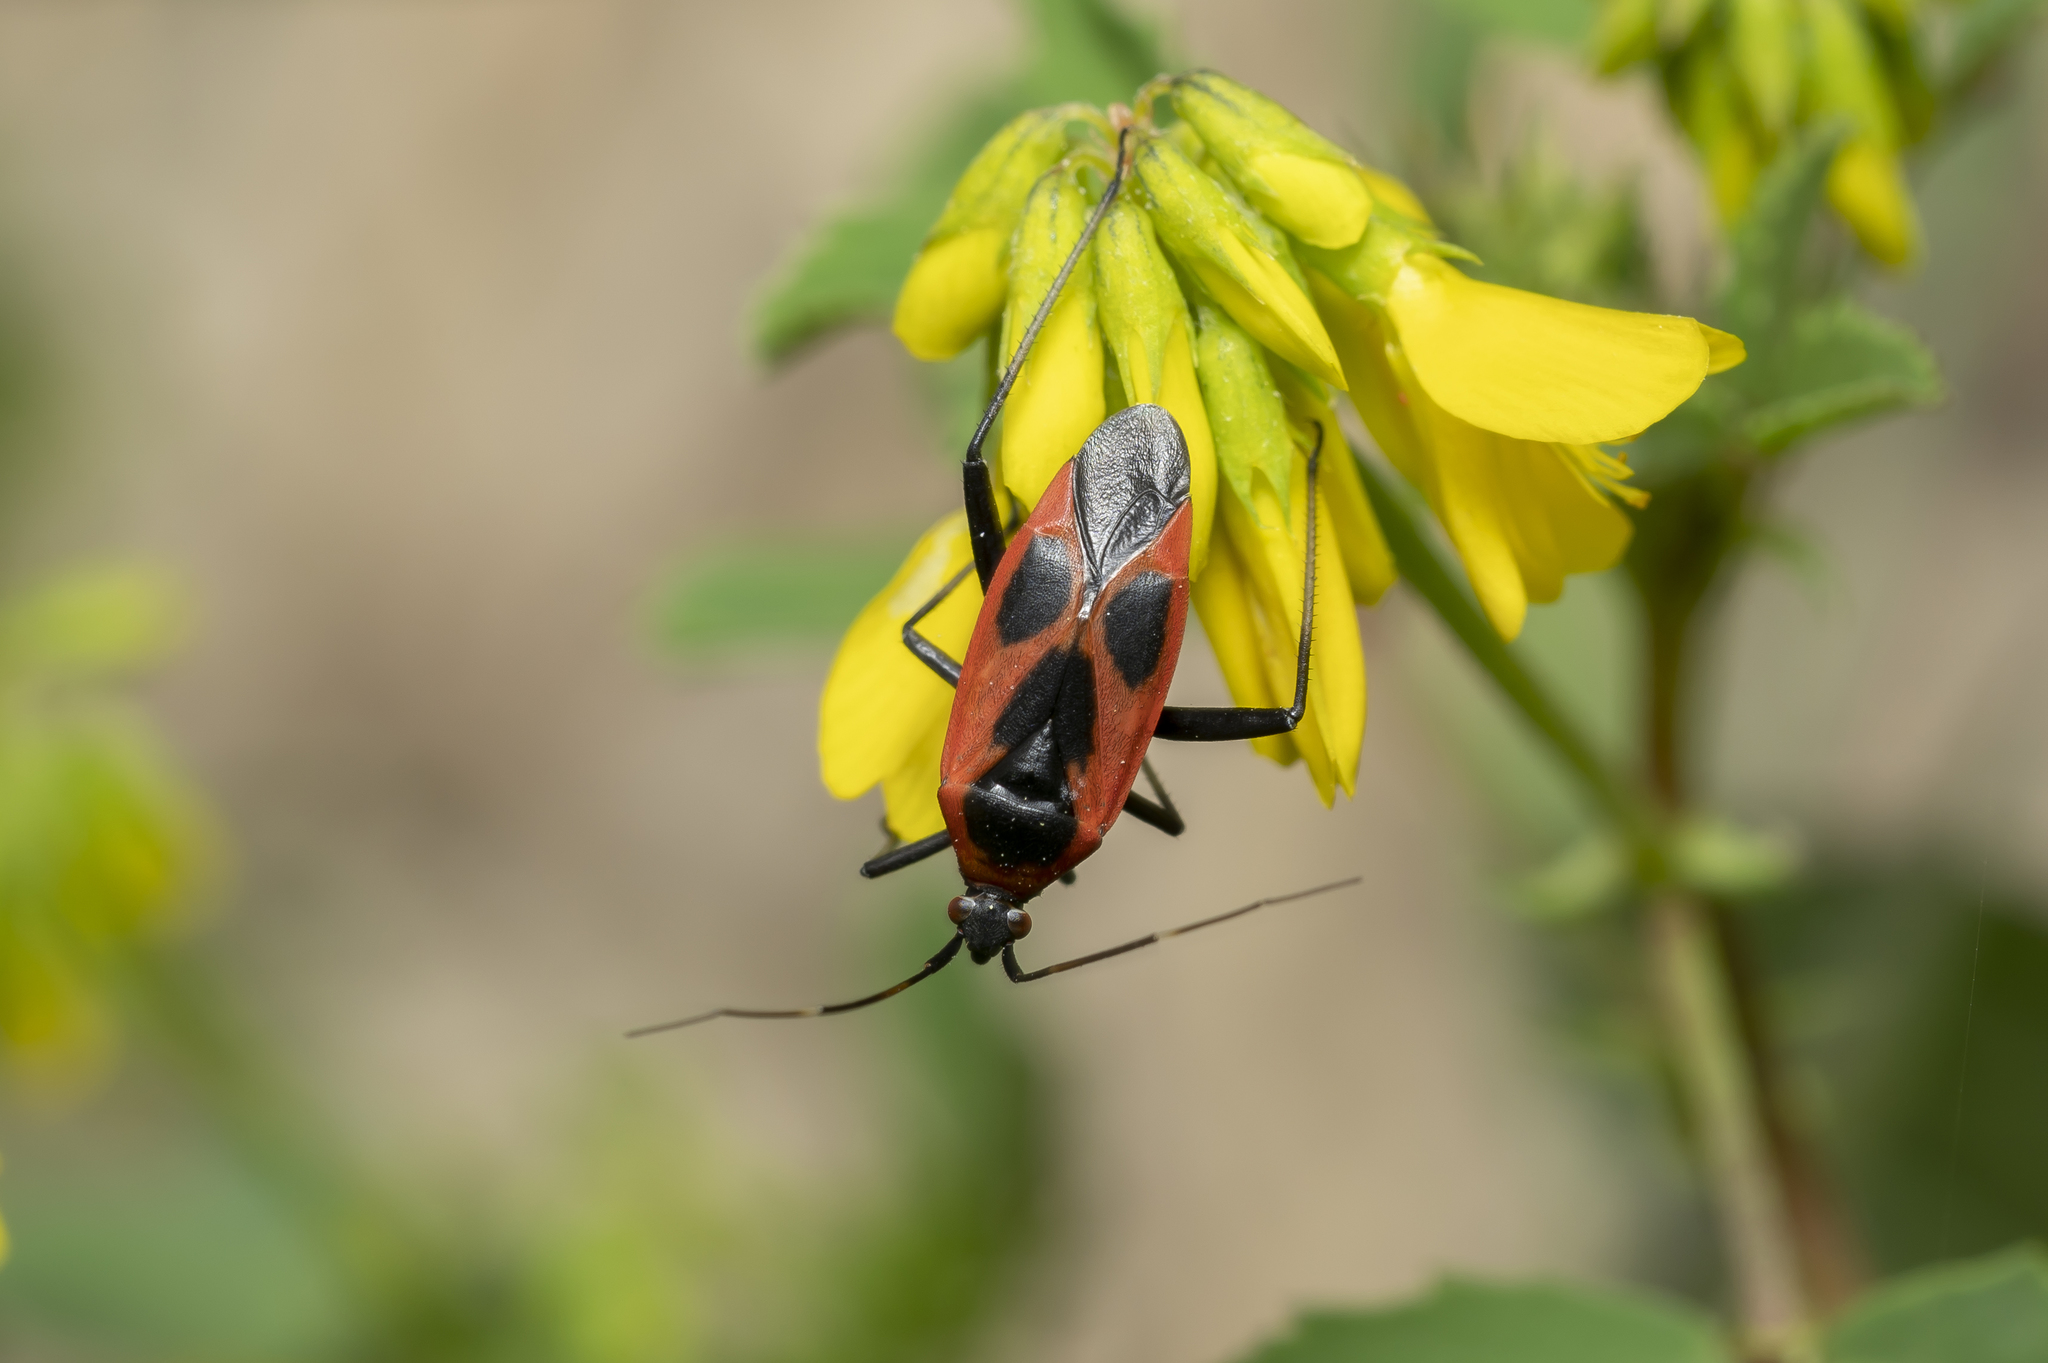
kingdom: Animalia
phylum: Arthropoda
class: Insecta
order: Hemiptera
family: Miridae
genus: Calocoris
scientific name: Calocoris nemoralis
